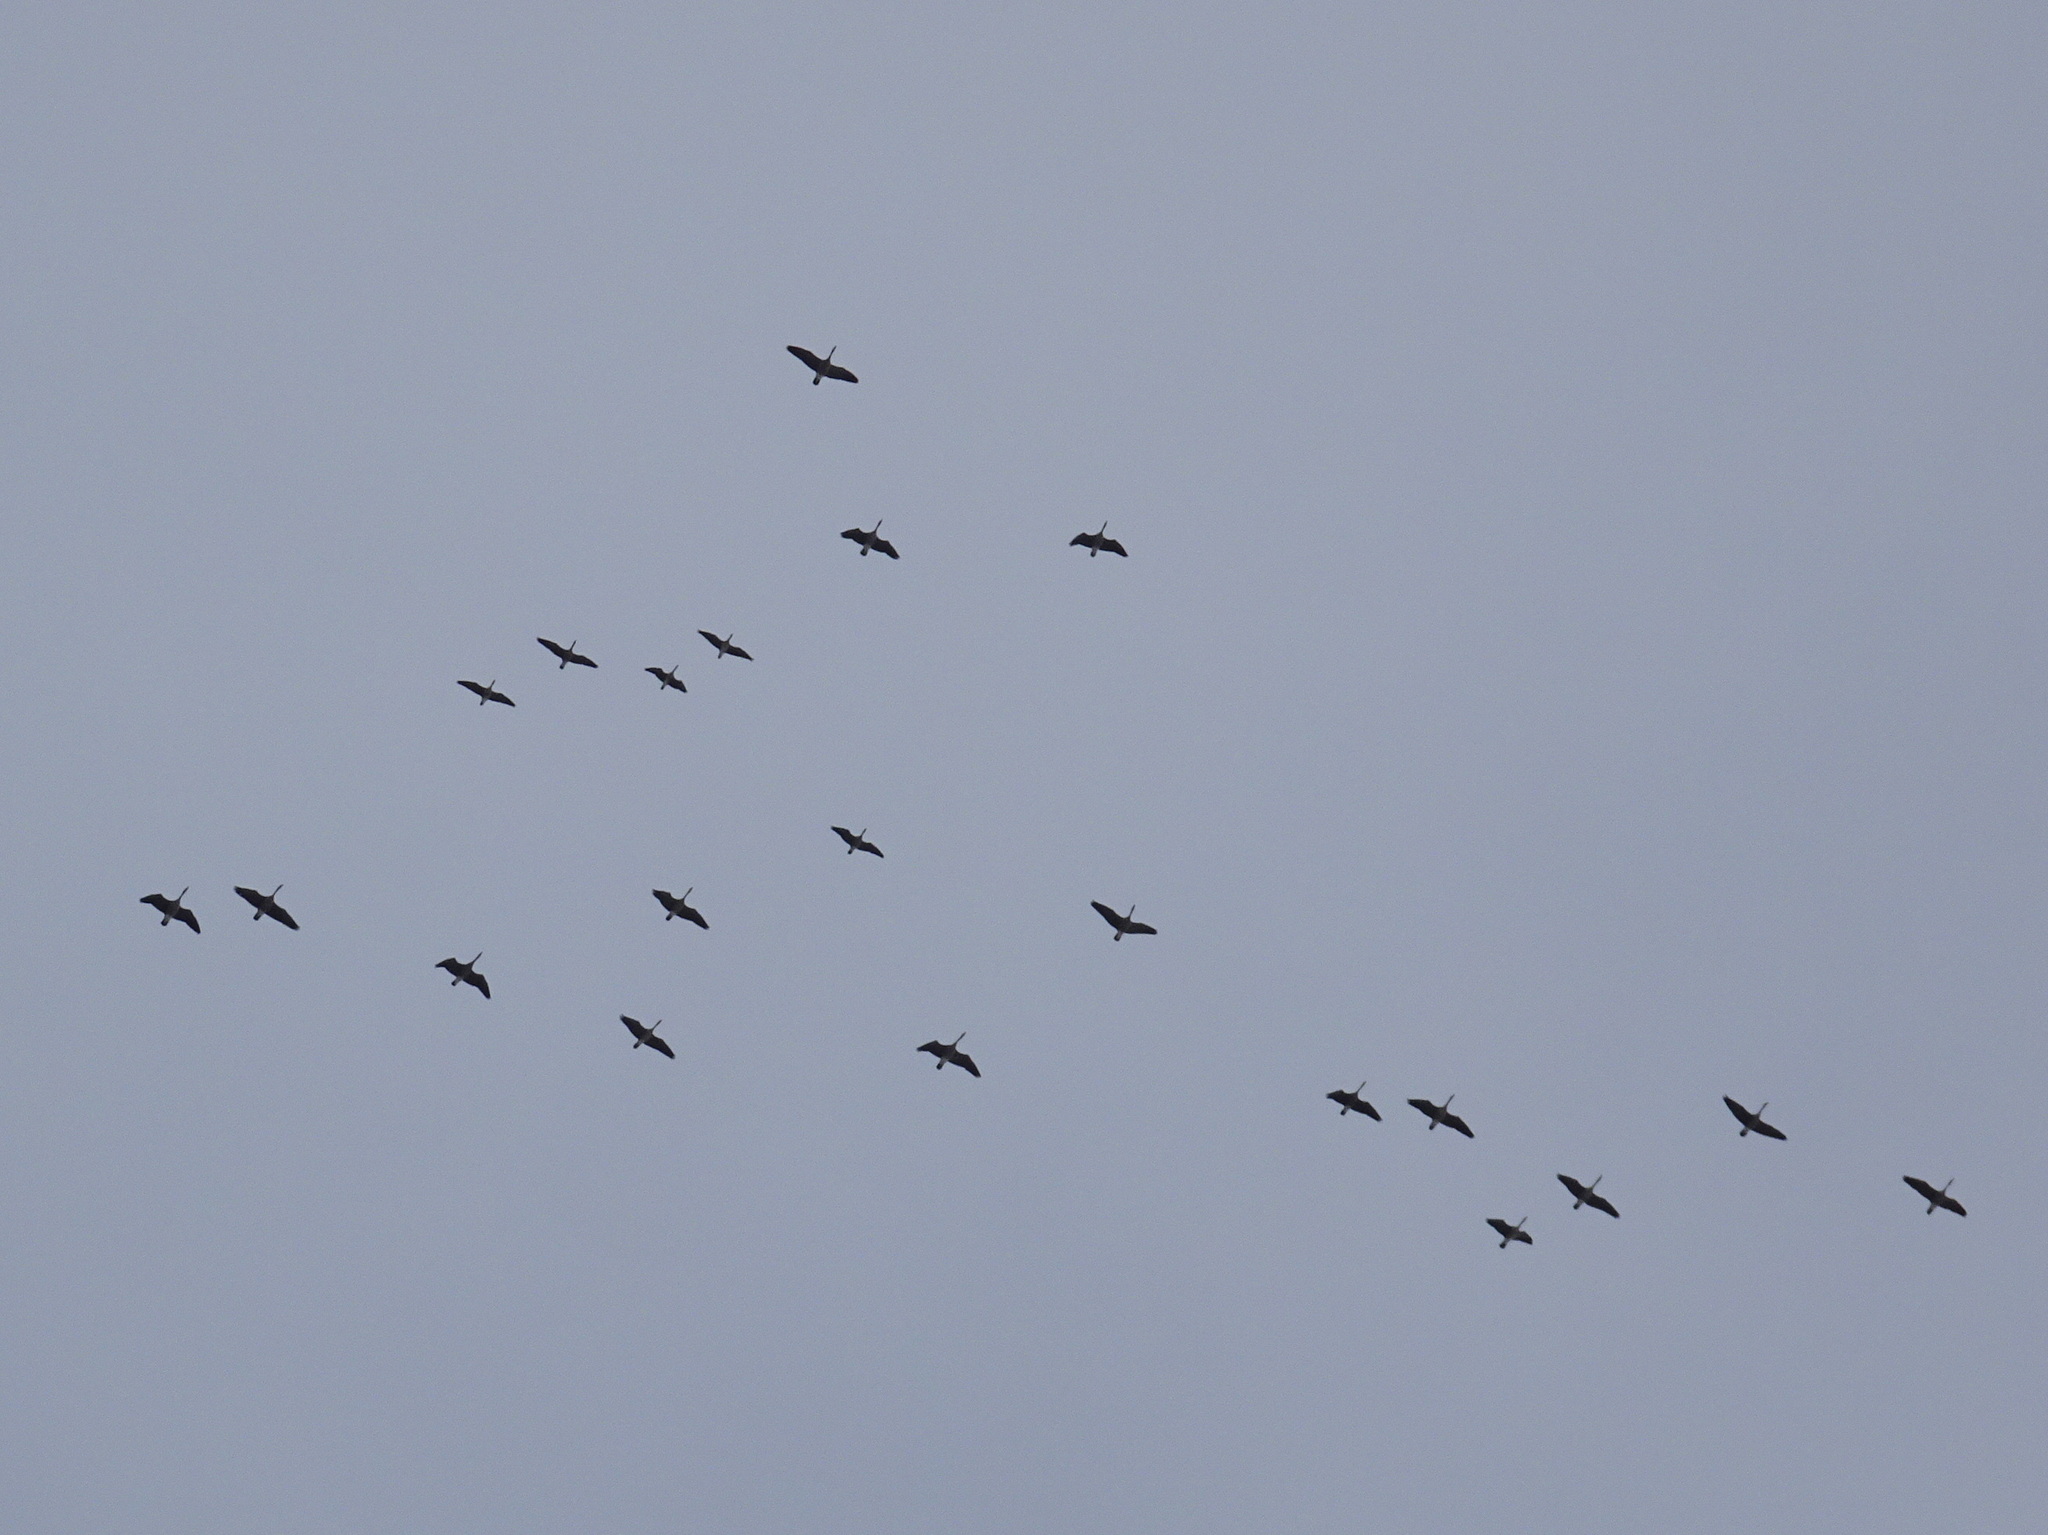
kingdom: Animalia
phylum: Chordata
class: Aves
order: Anseriformes
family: Anatidae
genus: Branta
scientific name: Branta hutchinsii
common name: Cackling goose
